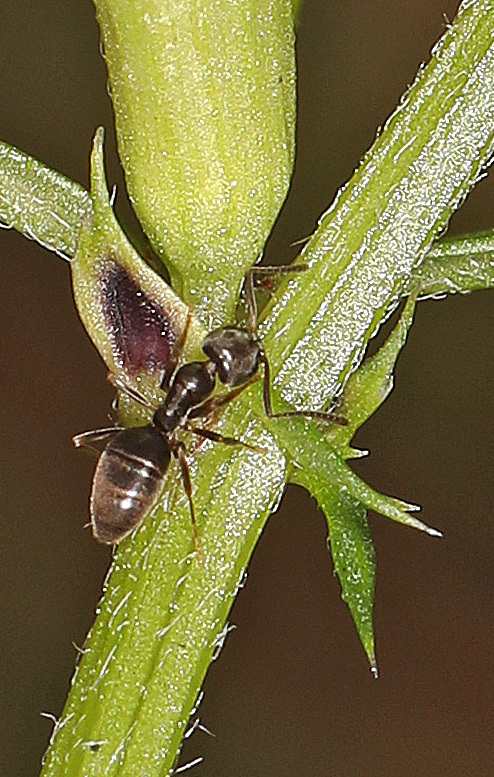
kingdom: Animalia
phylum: Arthropoda
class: Insecta
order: Hymenoptera
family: Formicidae
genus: Tapinoma
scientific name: Tapinoma sessile
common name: Odorous house ant
